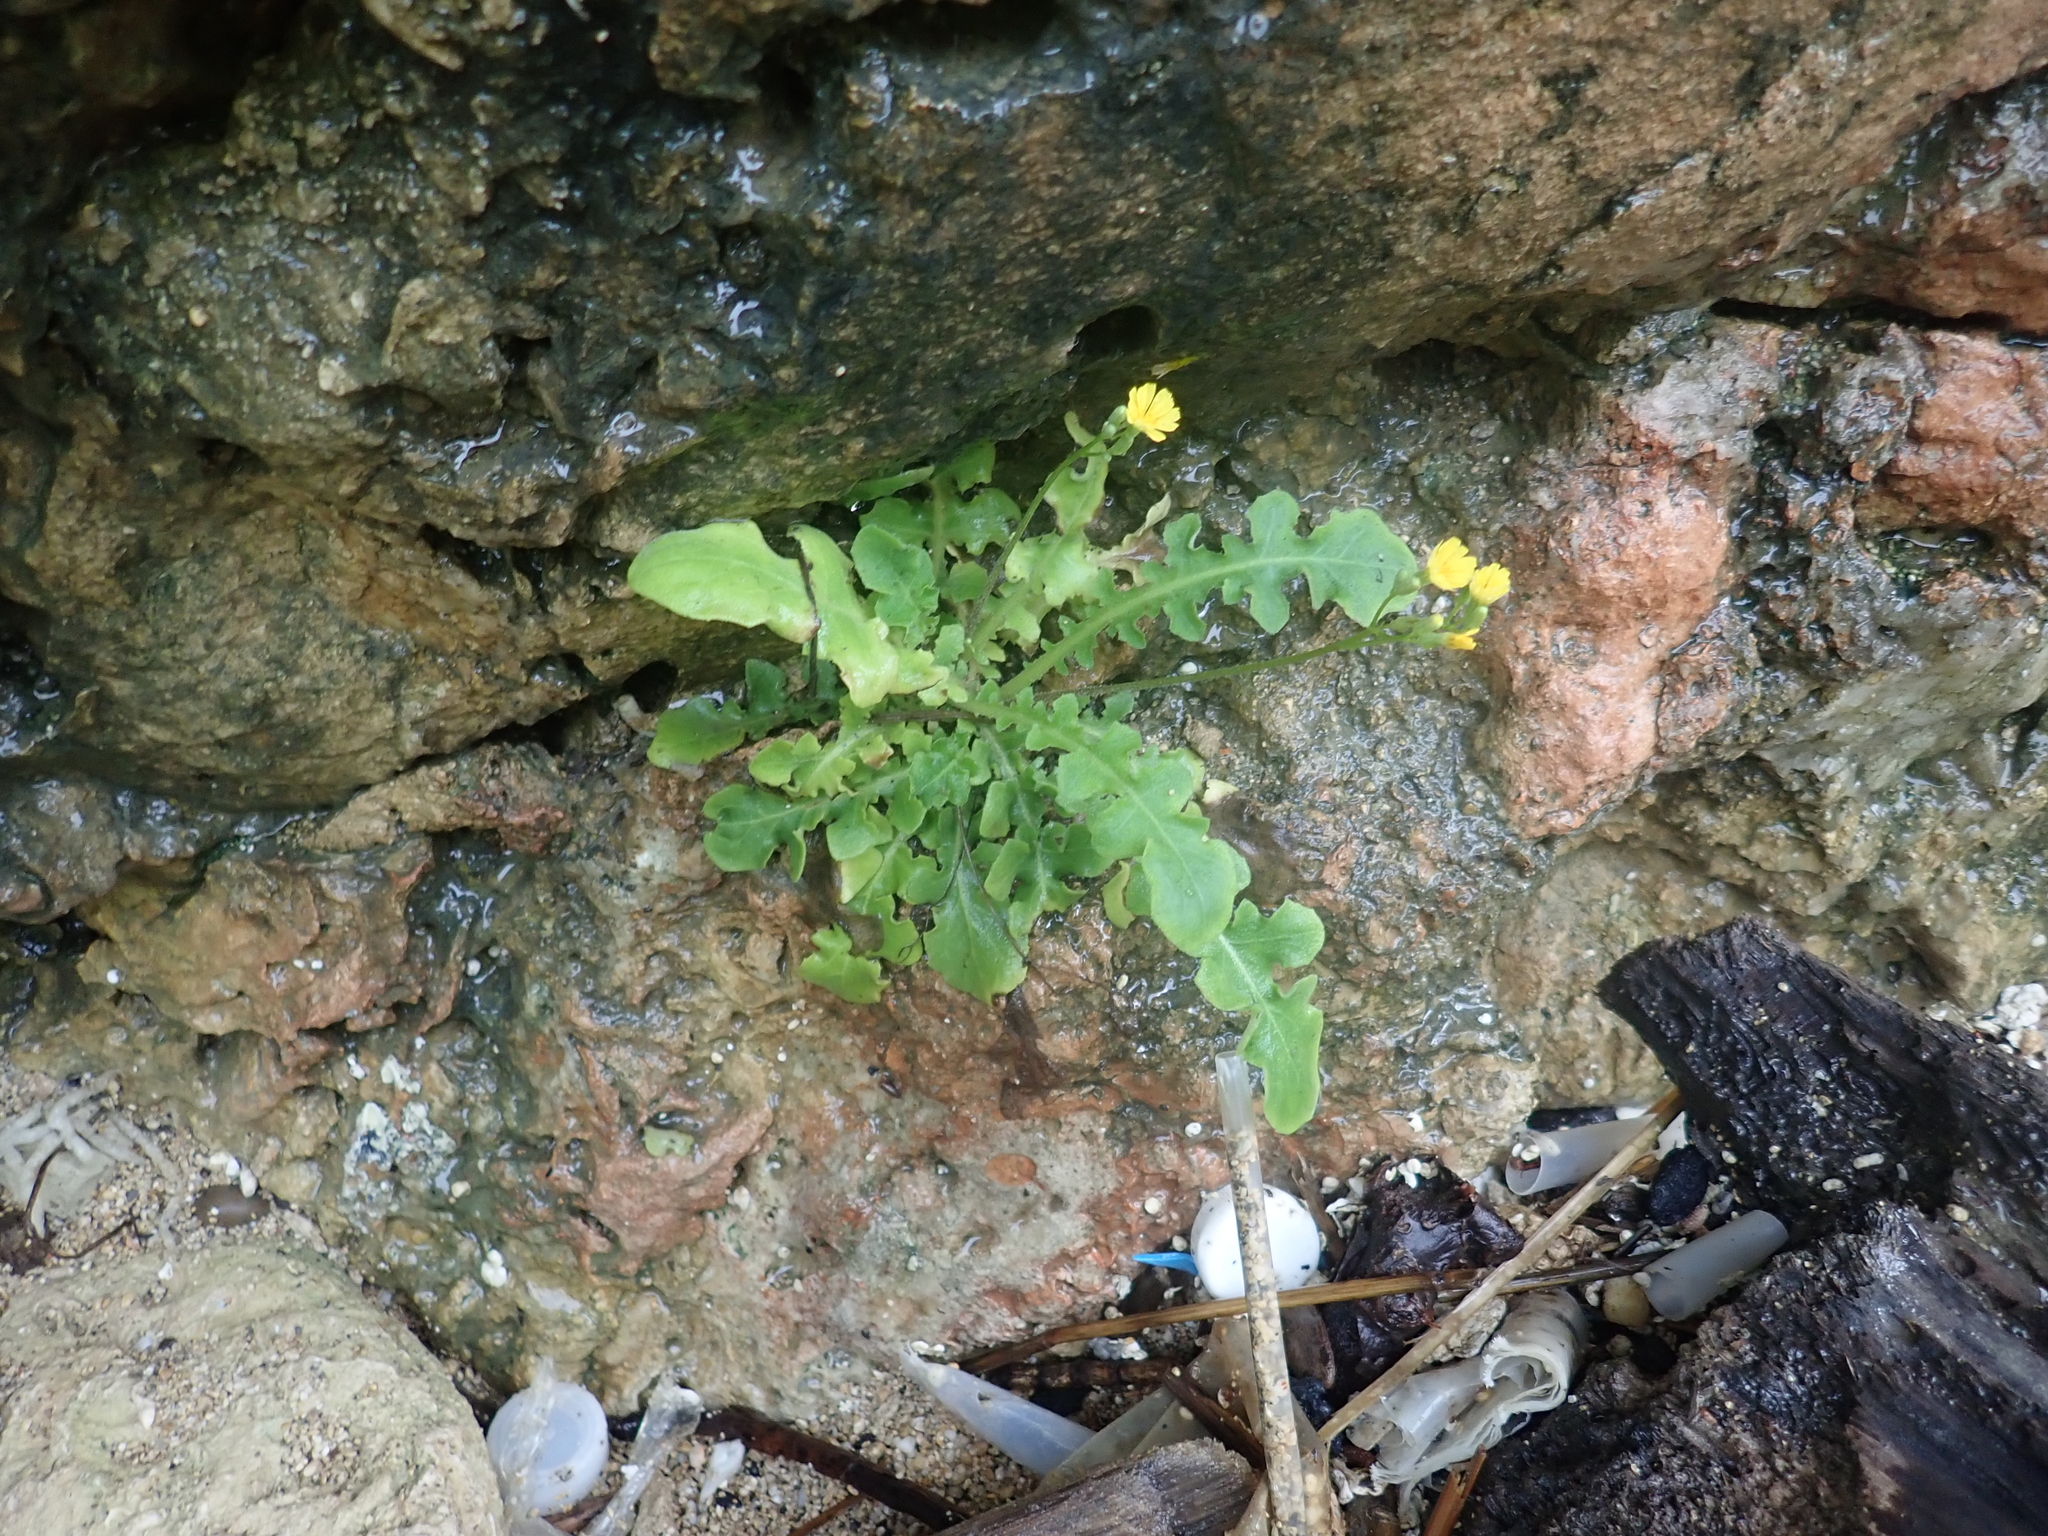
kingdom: Plantae
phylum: Tracheophyta
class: Magnoliopsida
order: Asterales
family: Asteraceae
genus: Youngia
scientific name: Youngia japonica
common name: Oriental false hawksbeard
